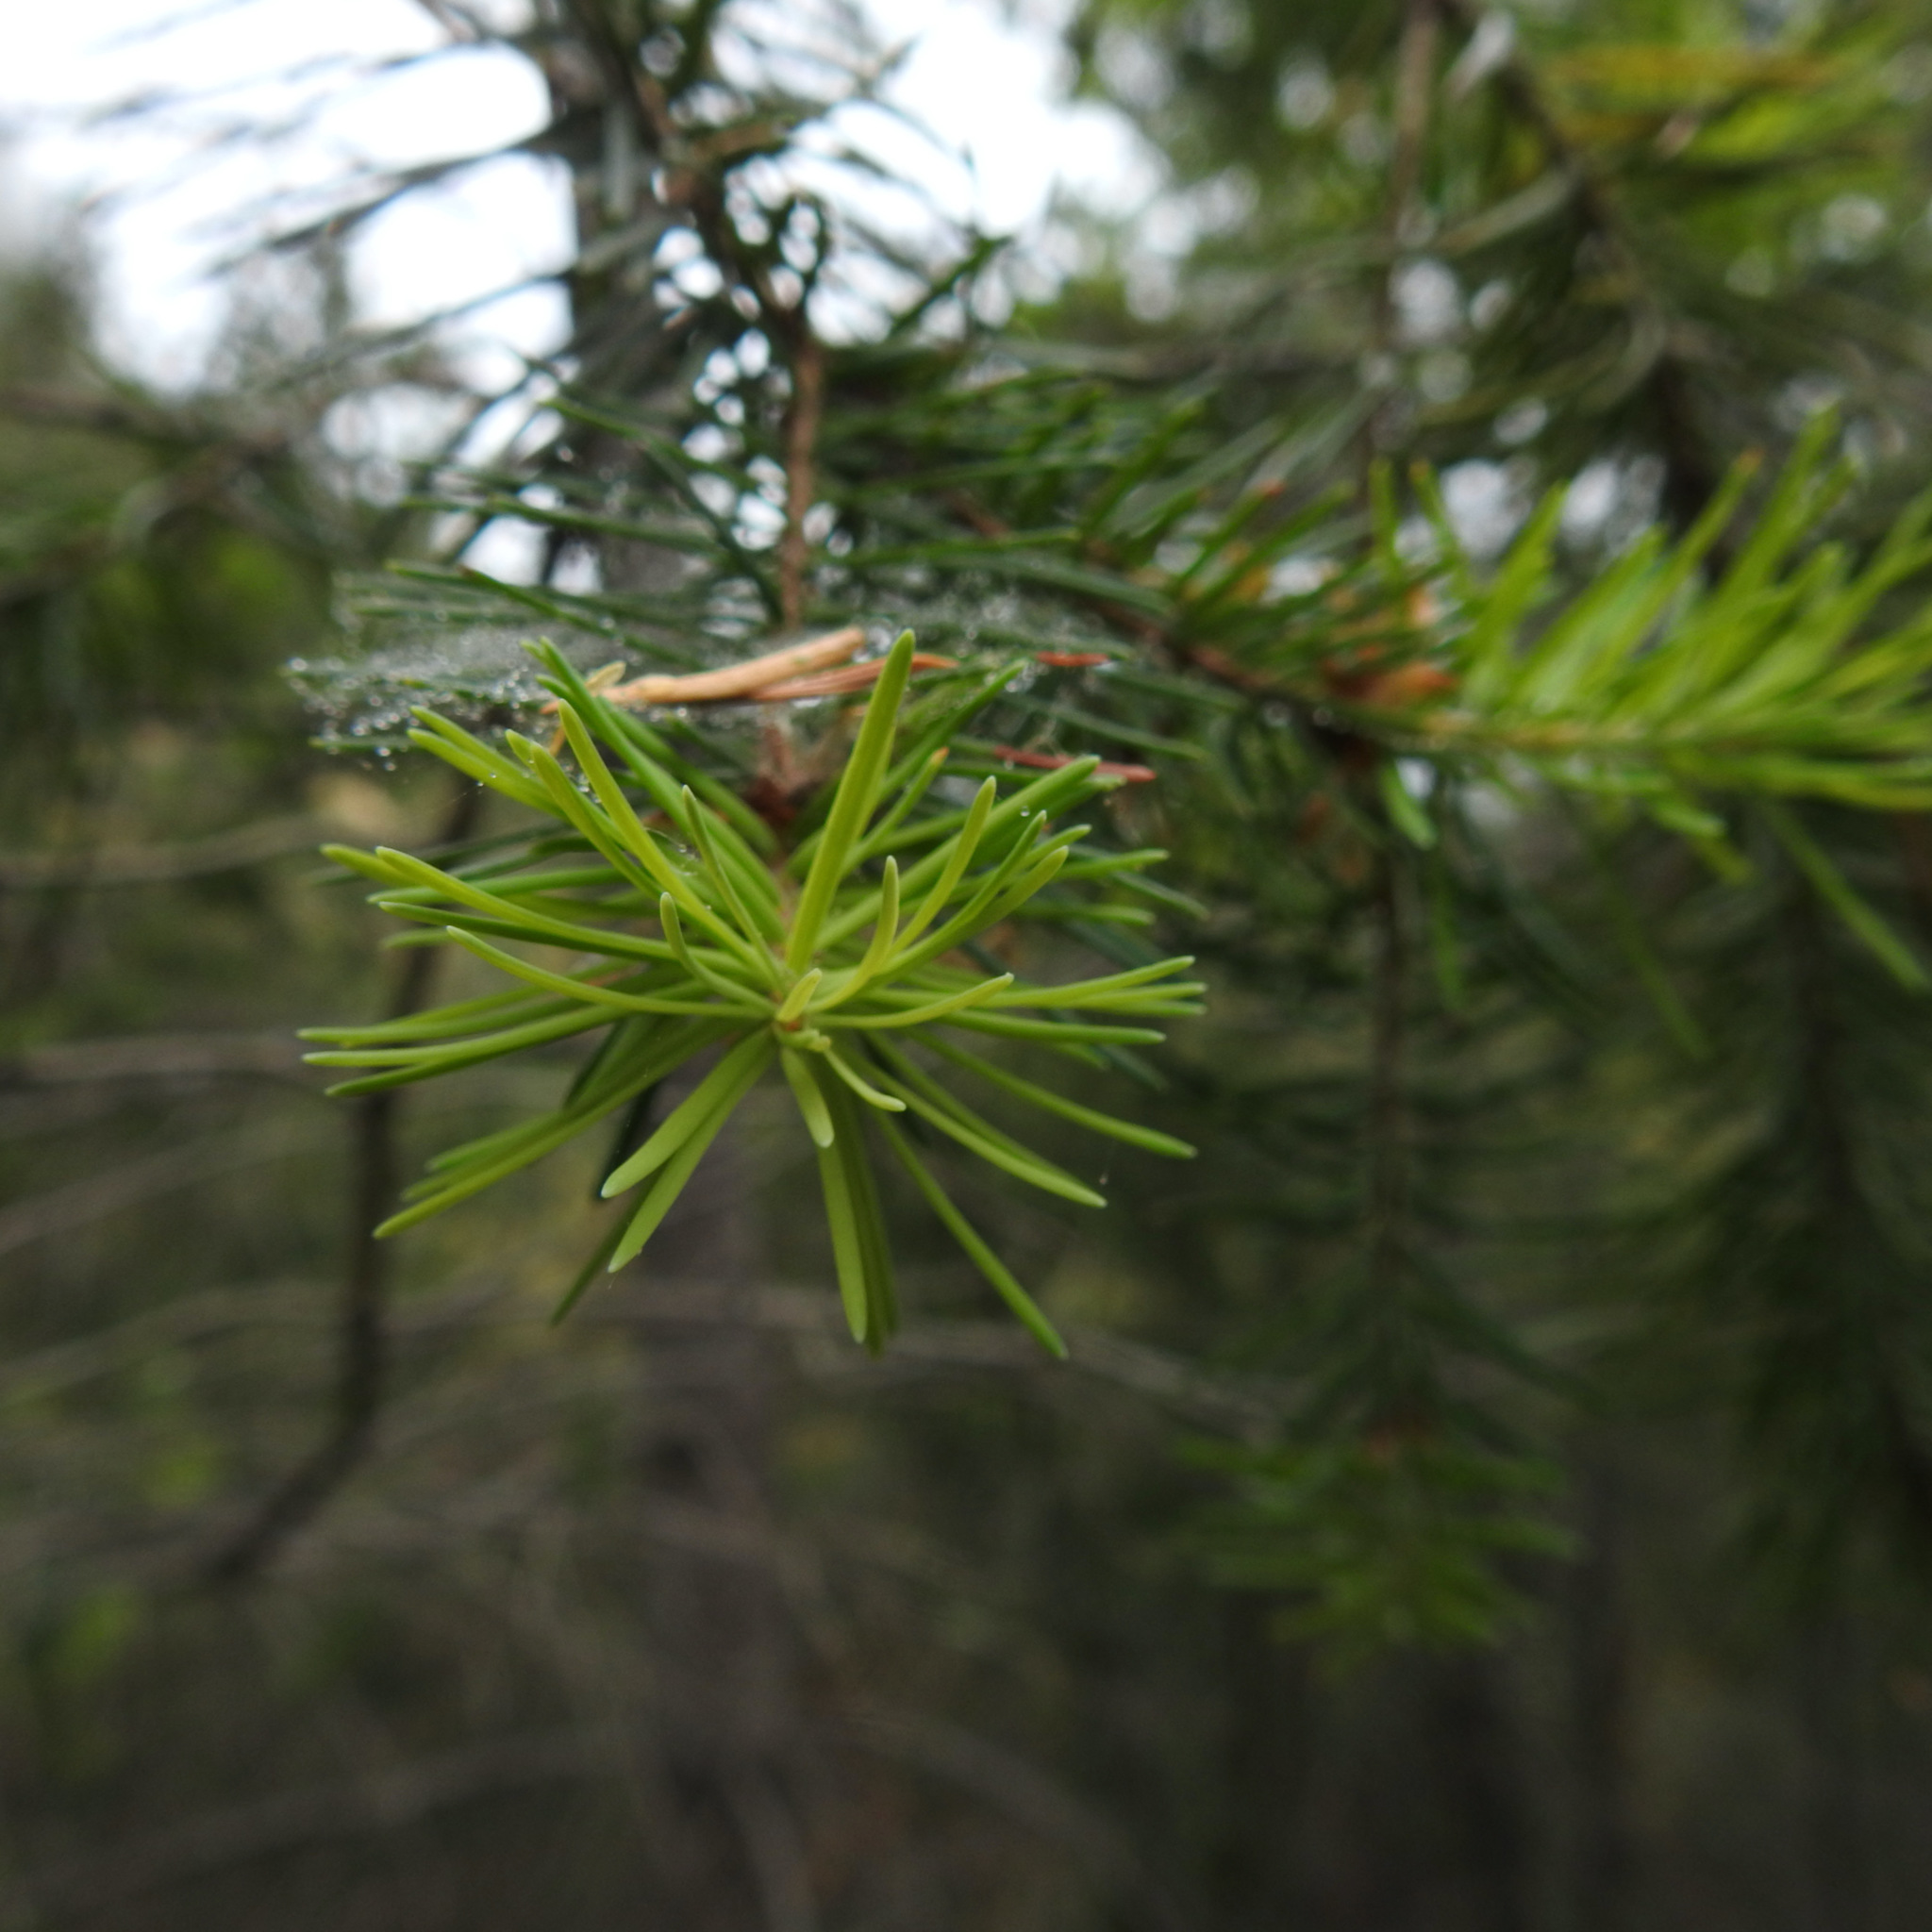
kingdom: Plantae
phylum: Tracheophyta
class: Pinopsida
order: Pinales
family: Pinaceae
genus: Pseudotsuga
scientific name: Pseudotsuga menziesii
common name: Douglas fir
